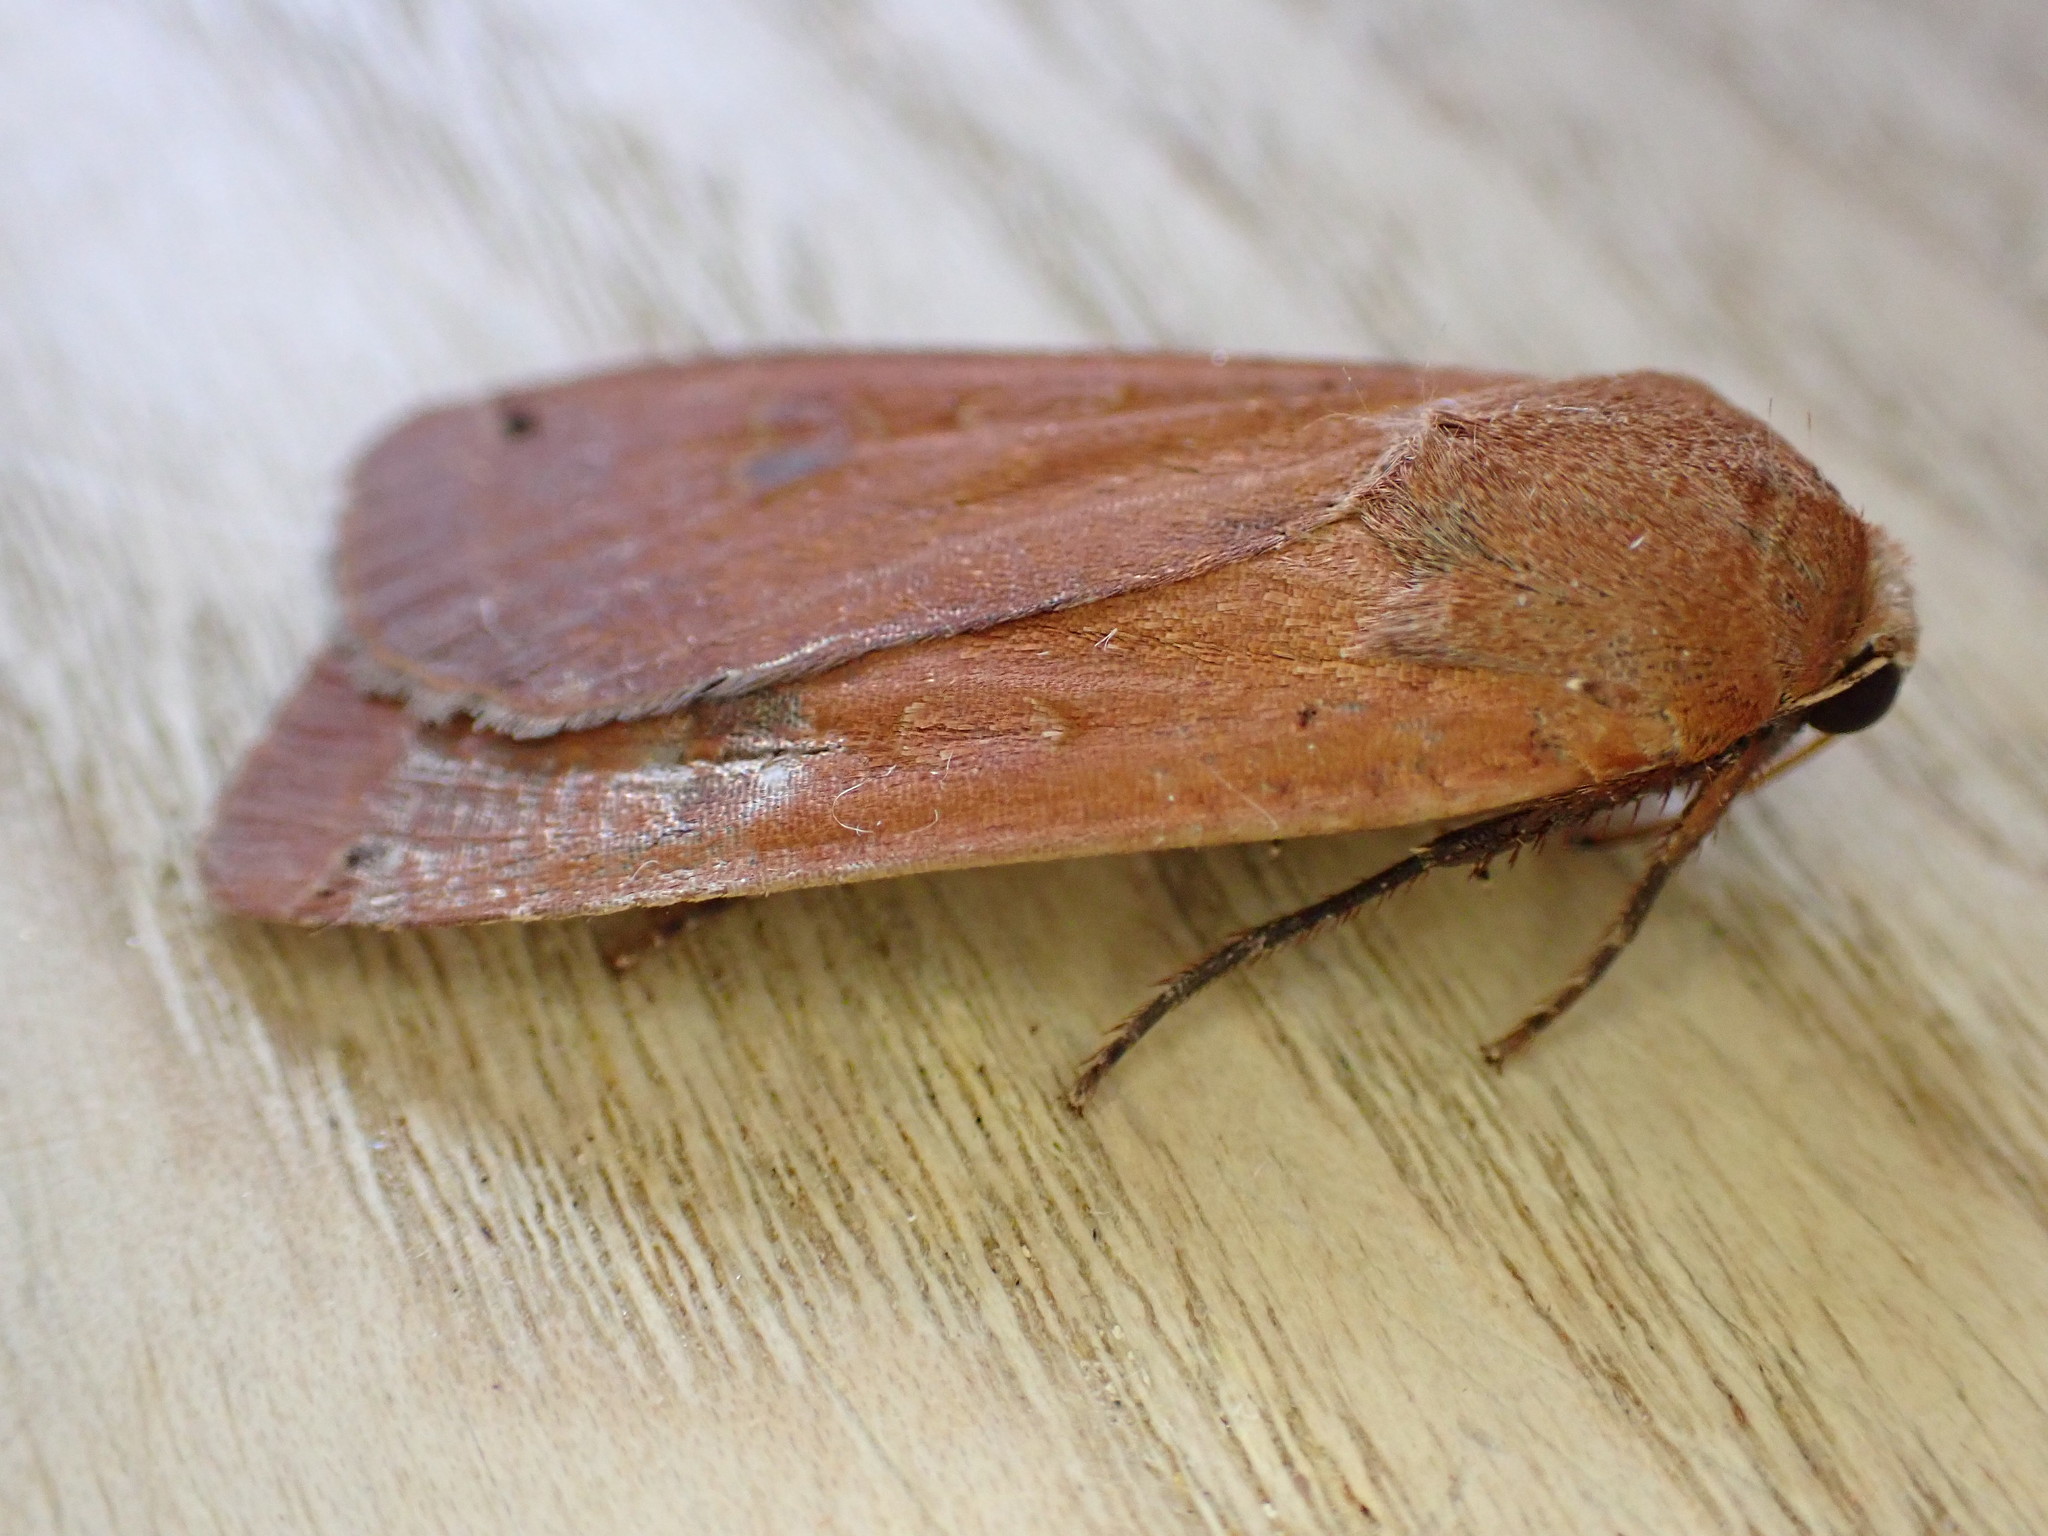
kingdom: Animalia
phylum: Arthropoda
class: Insecta
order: Lepidoptera
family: Noctuidae
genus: Noctua
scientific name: Noctua pronuba
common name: Large yellow underwing
